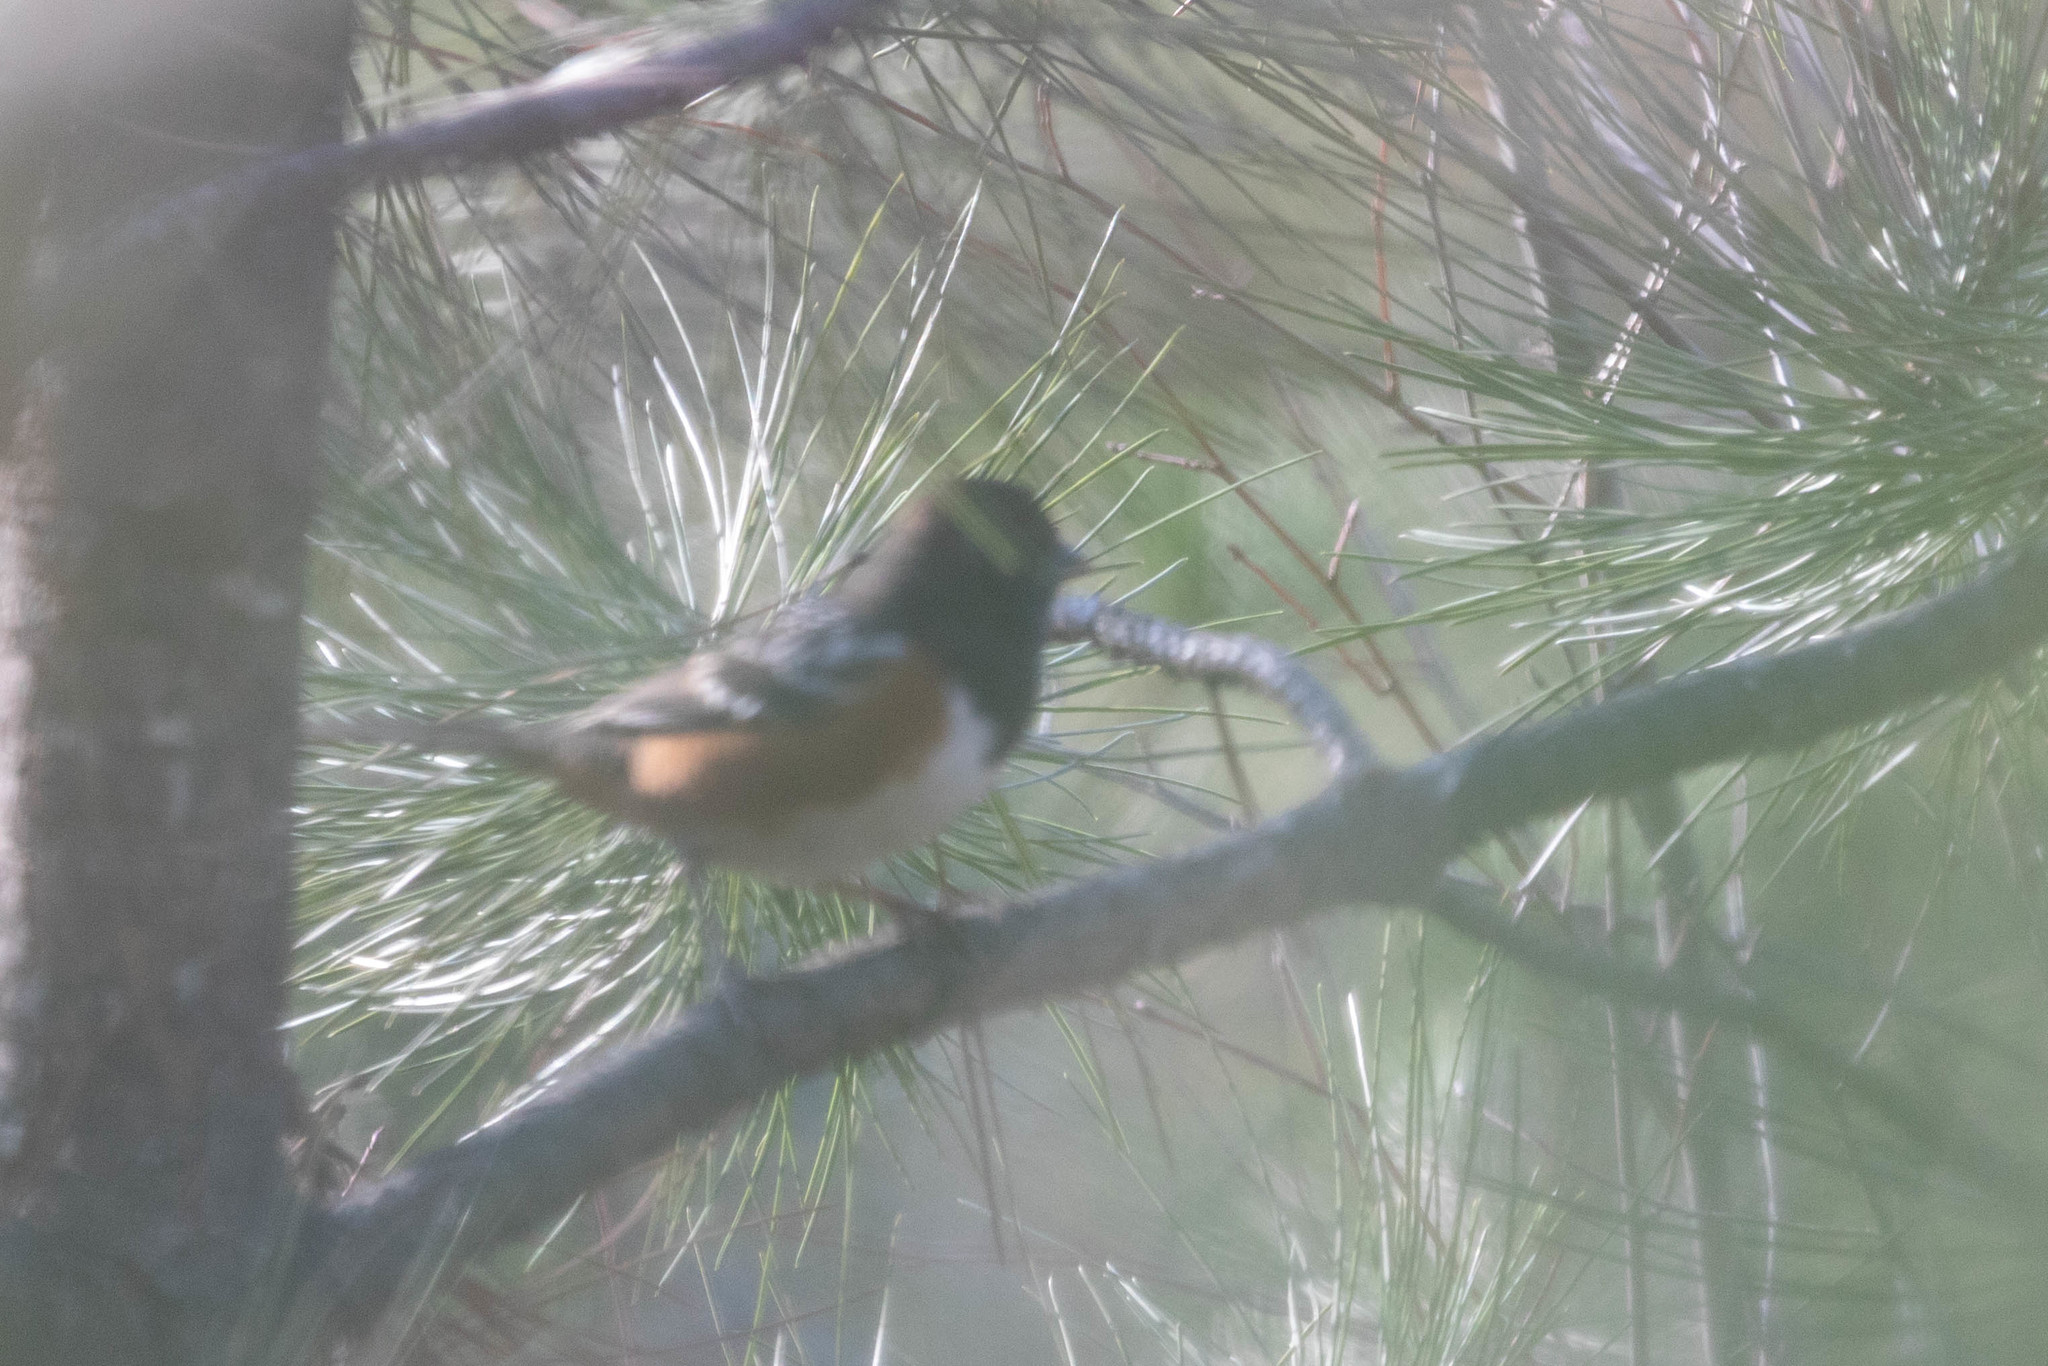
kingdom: Animalia
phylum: Chordata
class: Aves
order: Passeriformes
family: Passerellidae
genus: Pipilo
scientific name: Pipilo maculatus
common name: Spotted towhee
